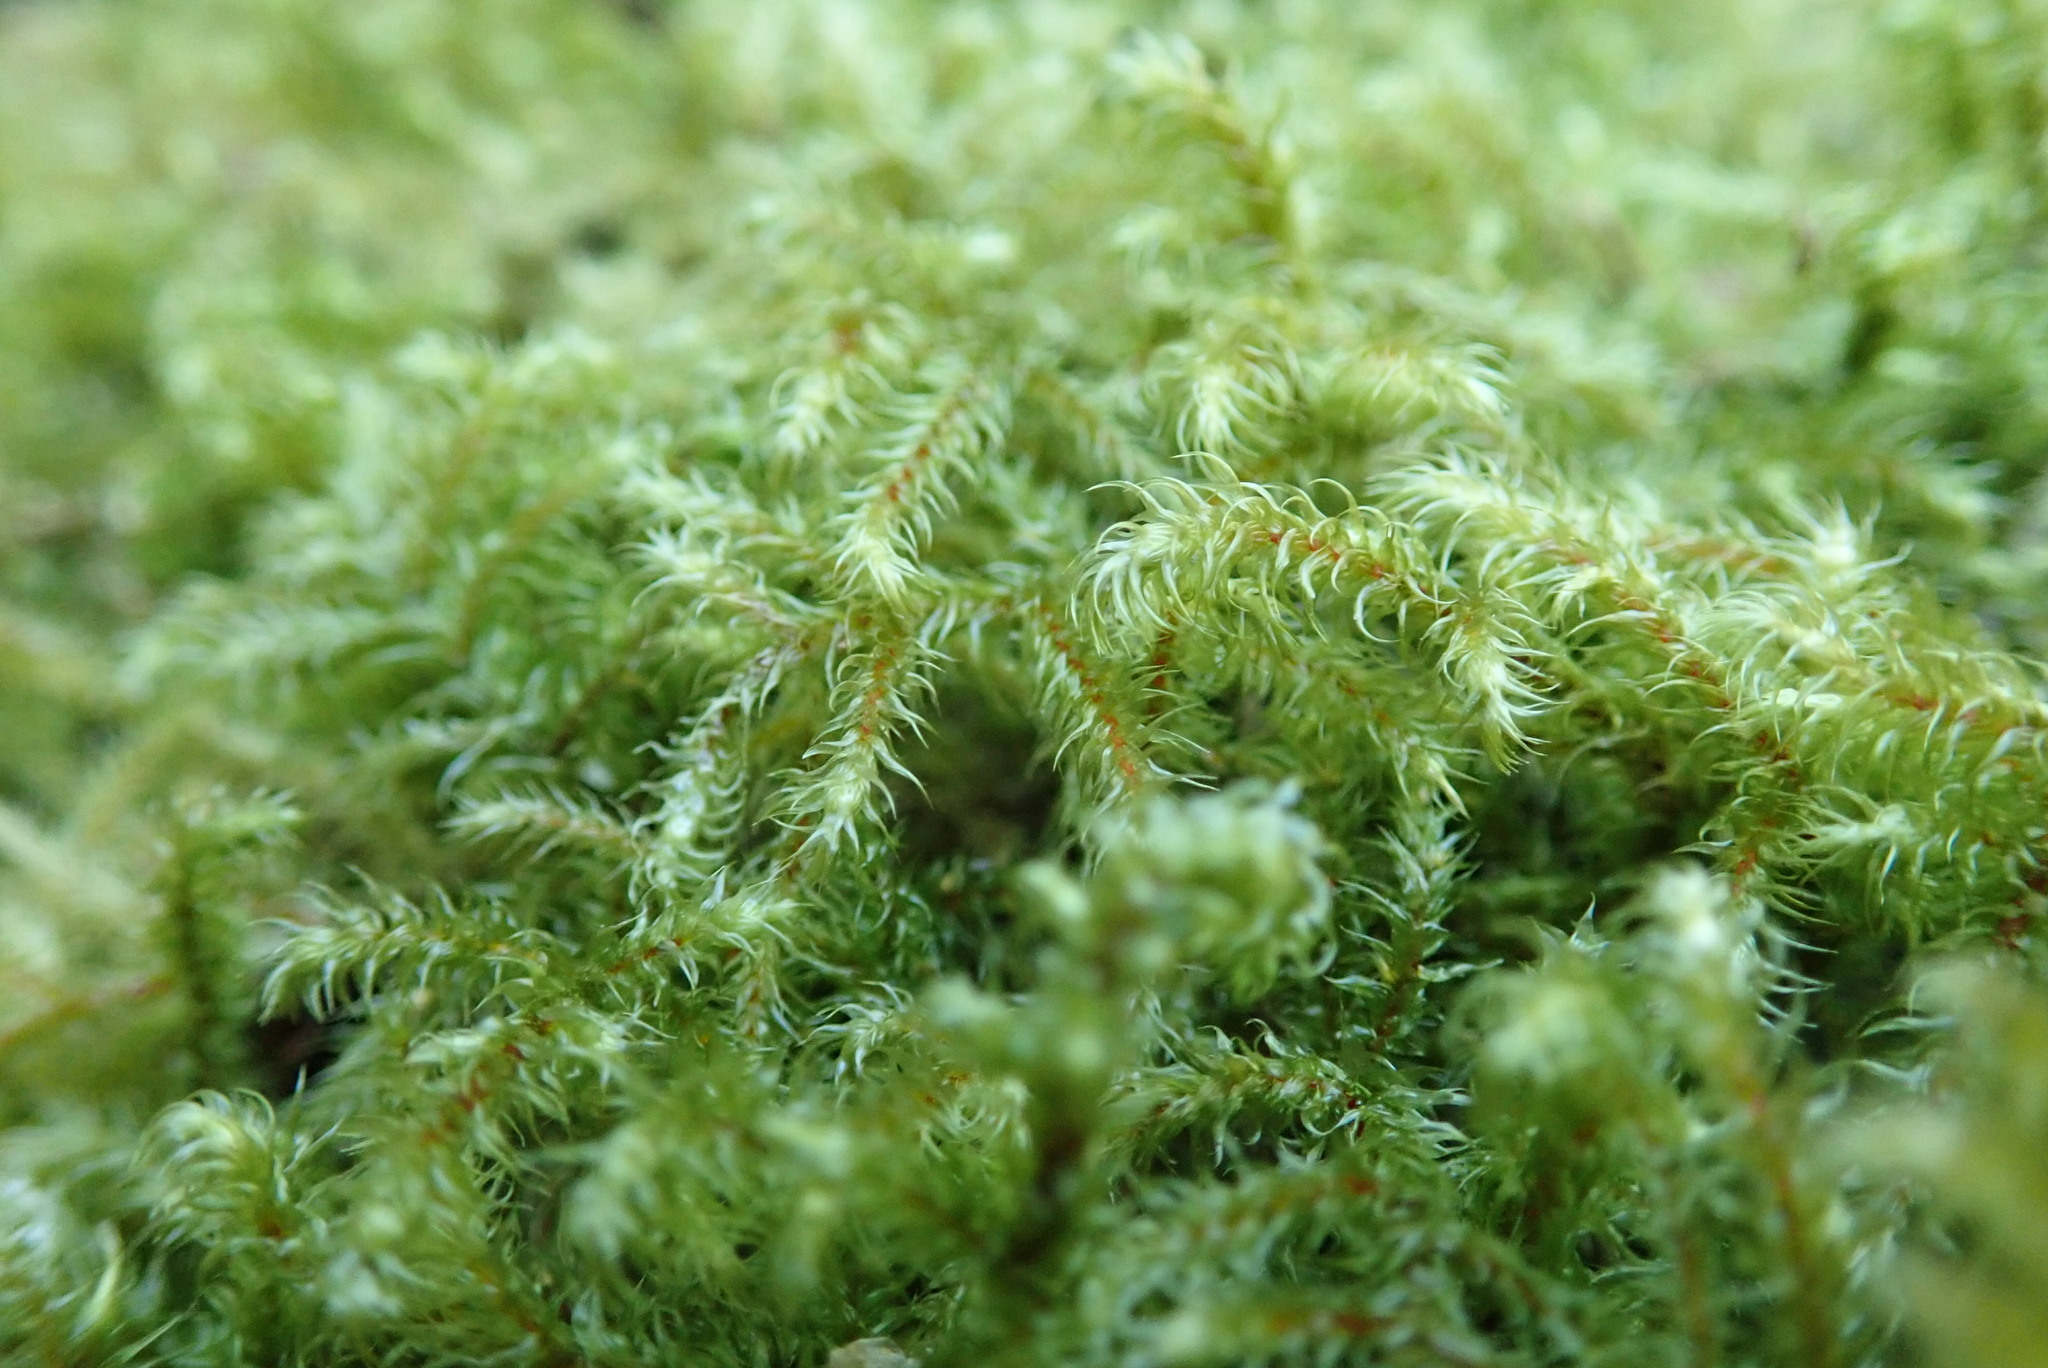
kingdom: Plantae
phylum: Bryophyta
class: Bryopsida
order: Hypnales
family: Hylocomiaceae
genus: Rhytidiadelphus
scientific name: Rhytidiadelphus loreus
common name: Lanky moss
